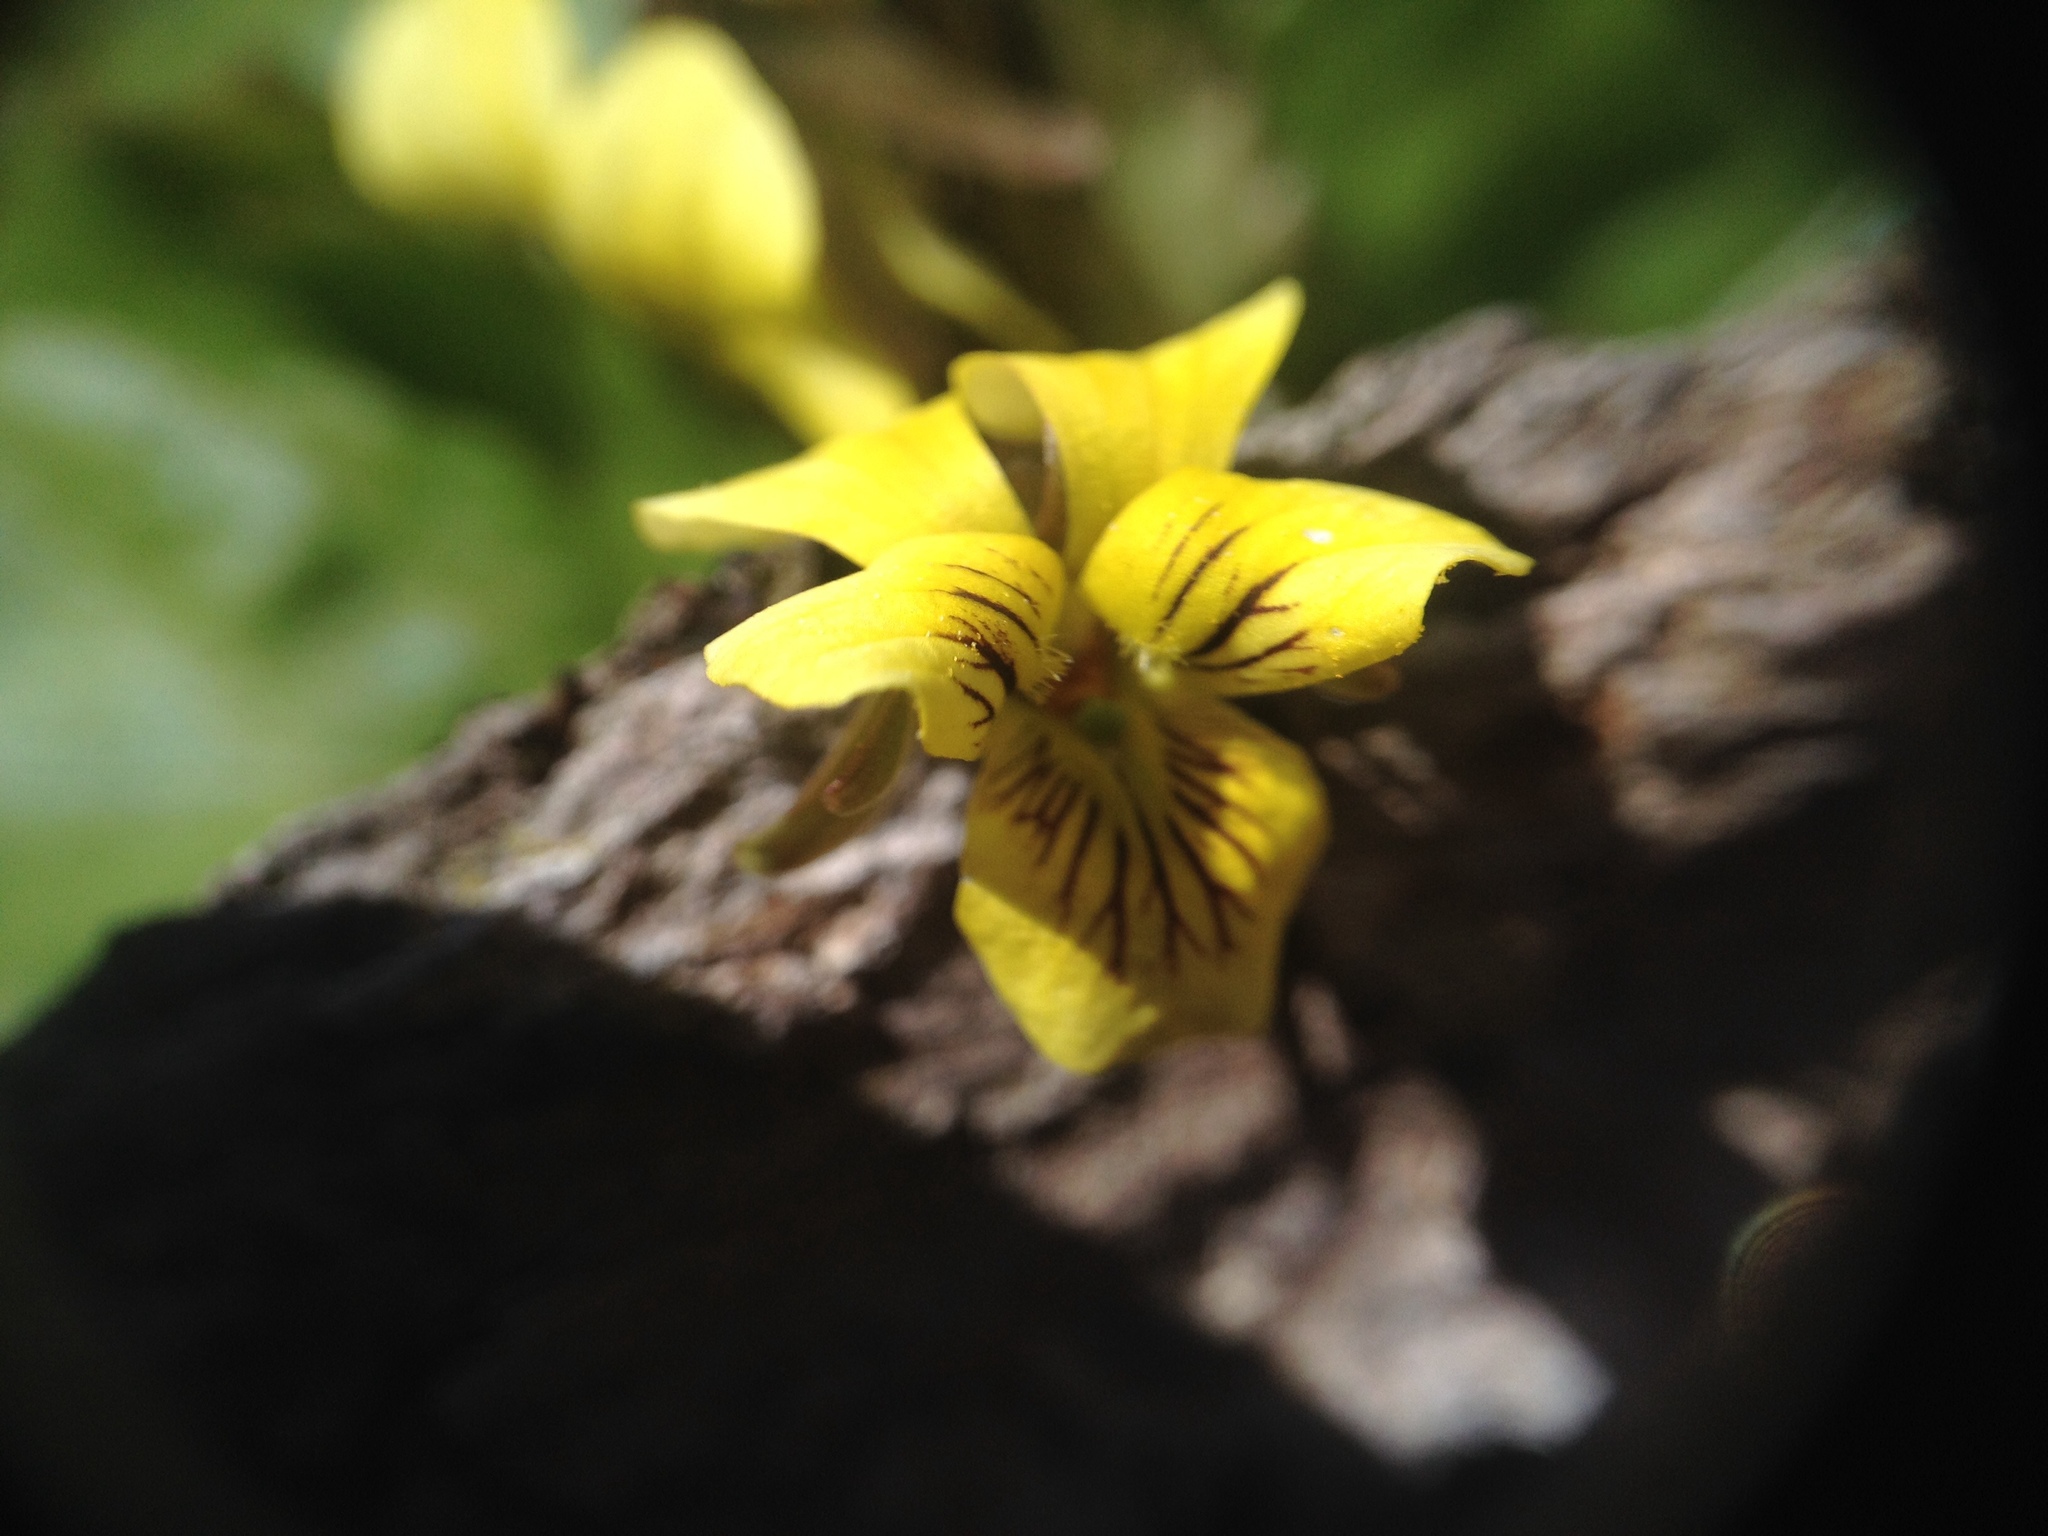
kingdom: Plantae
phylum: Tracheophyta
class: Magnoliopsida
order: Malpighiales
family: Violaceae
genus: Viola
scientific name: Viola rotundifolia
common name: Early yellow violet
